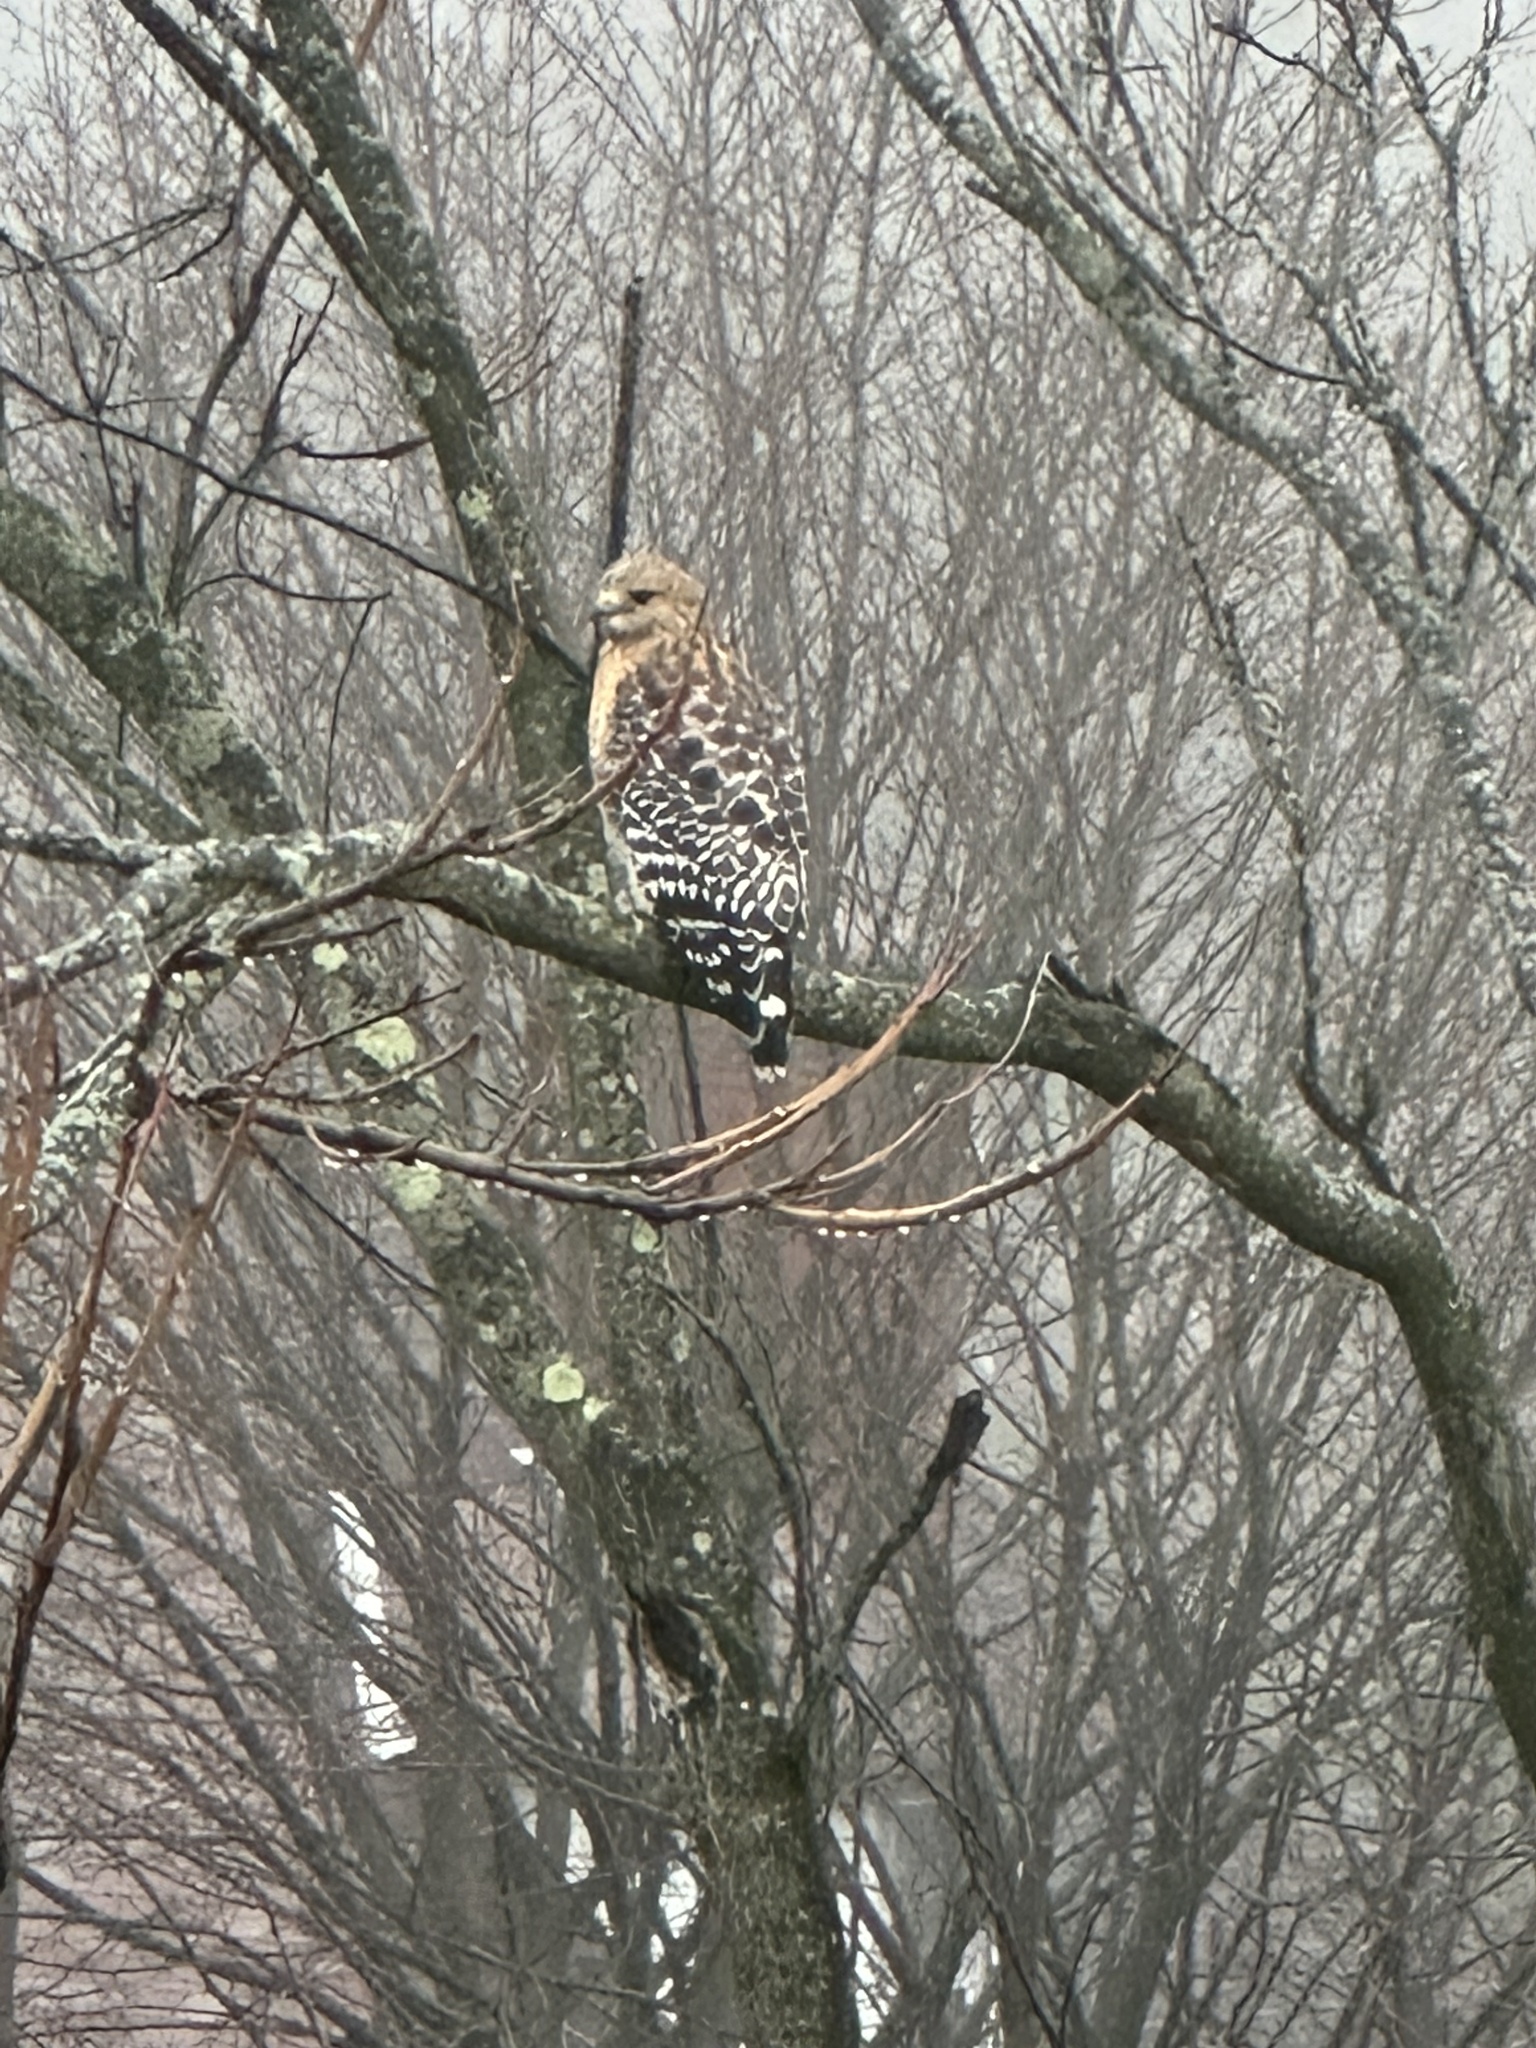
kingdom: Animalia
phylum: Chordata
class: Aves
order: Accipitriformes
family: Accipitridae
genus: Buteo
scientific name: Buteo lineatus
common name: Red-shouldered hawk
